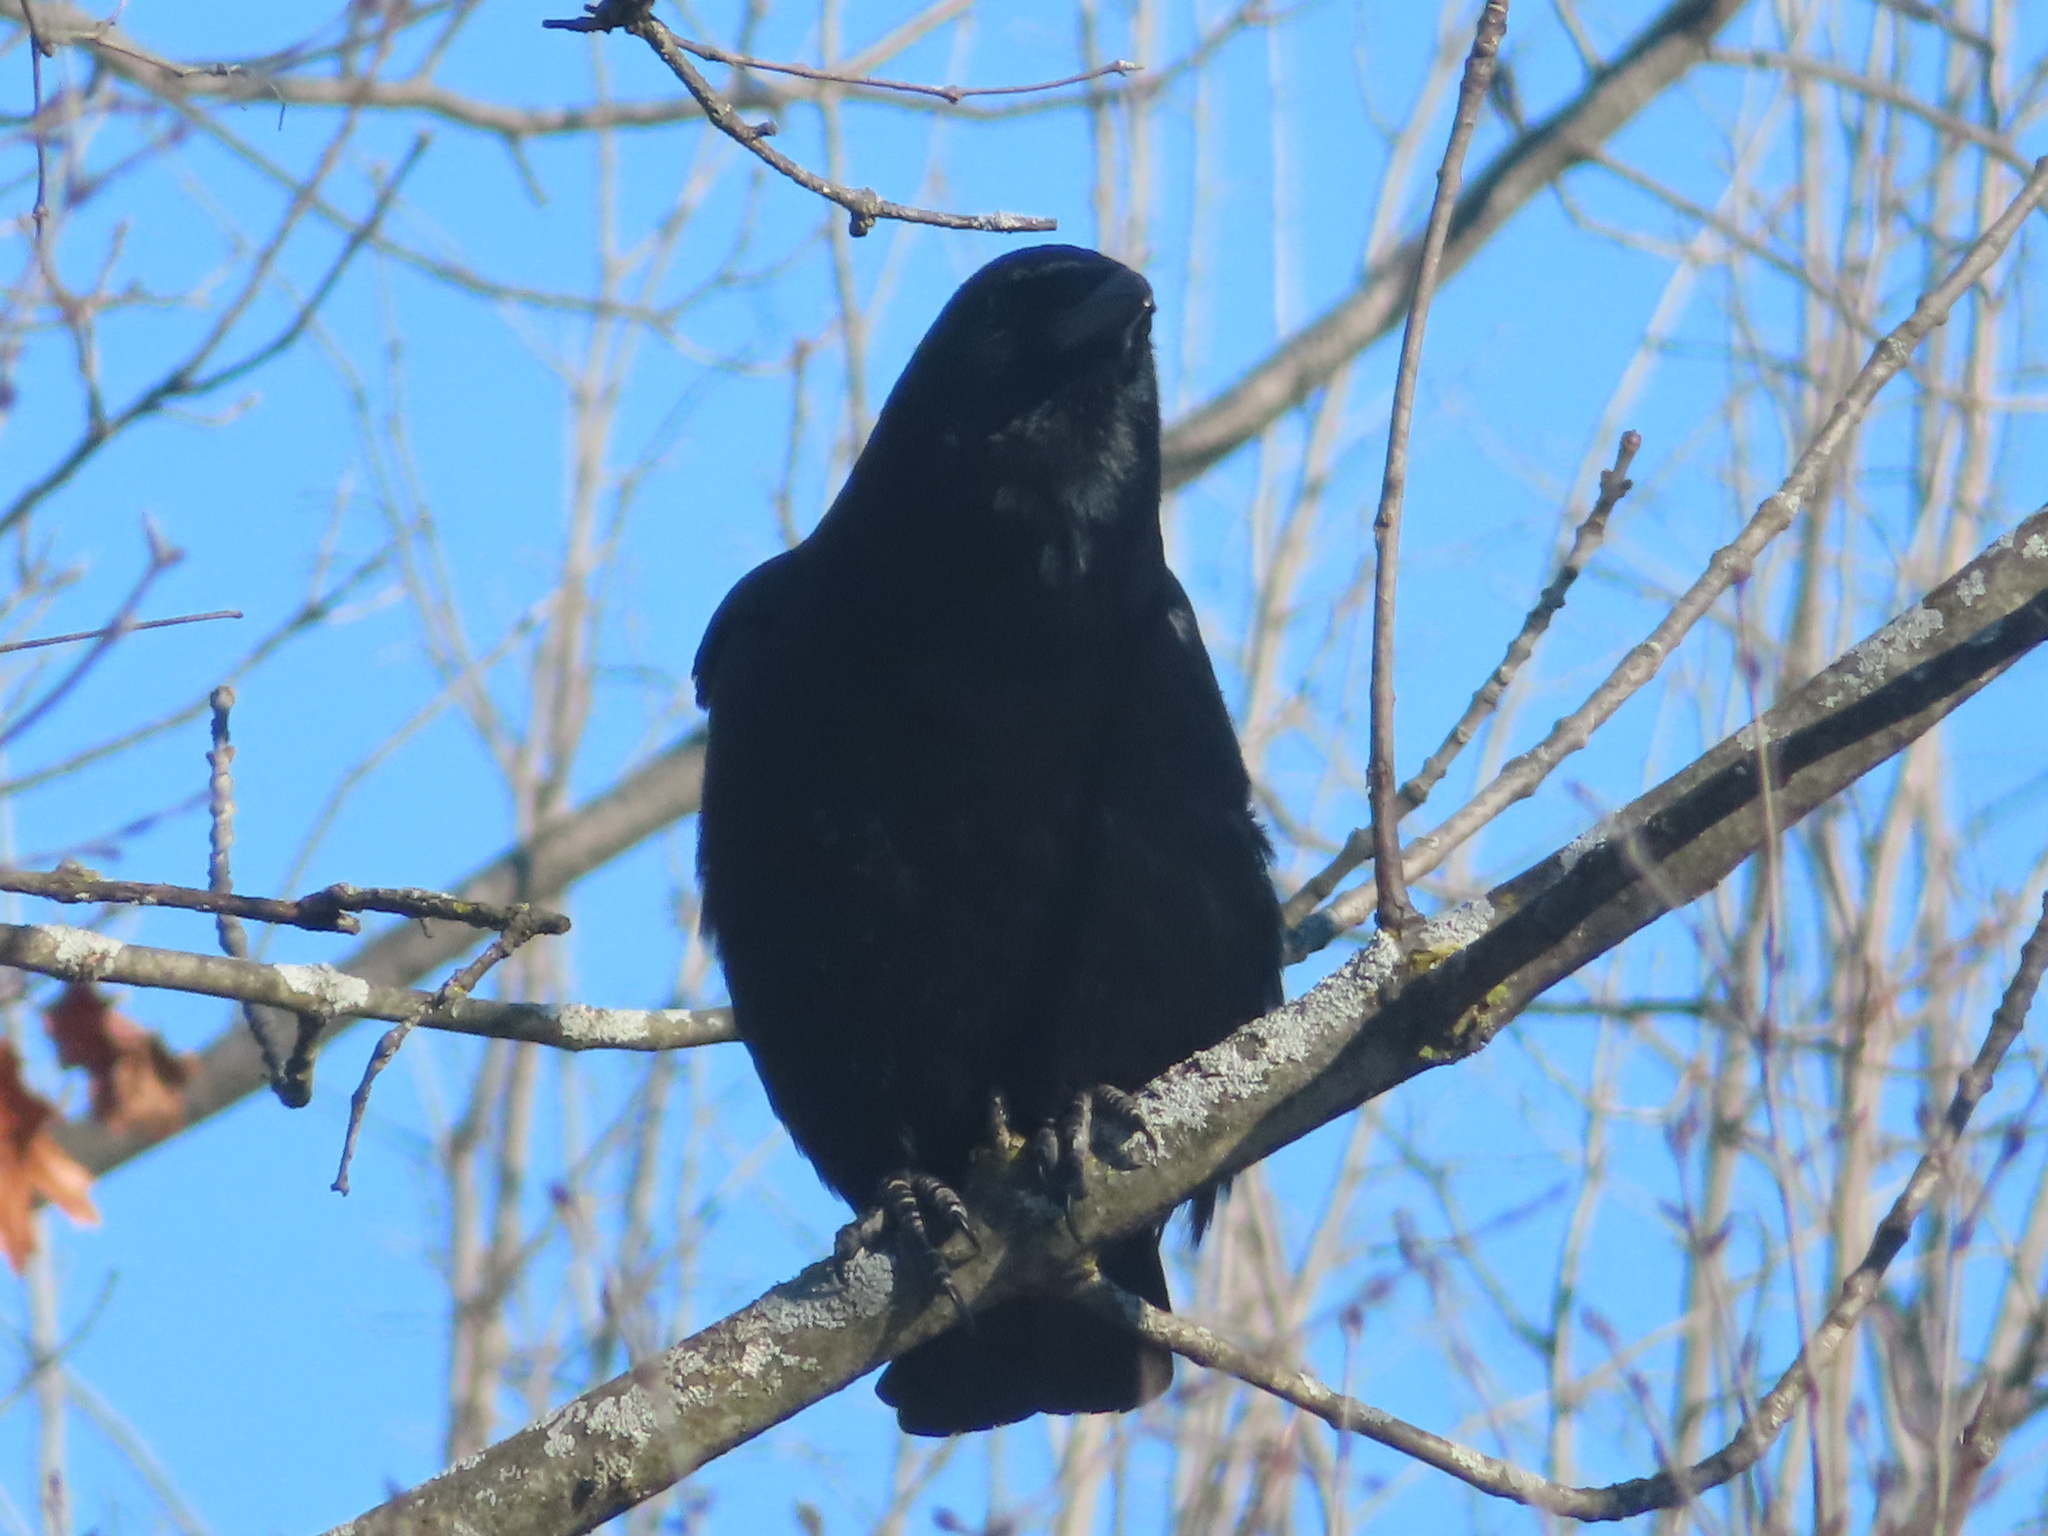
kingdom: Animalia
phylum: Chordata
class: Aves
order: Passeriformes
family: Corvidae
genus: Corvus
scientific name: Corvus brachyrhynchos
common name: American crow
